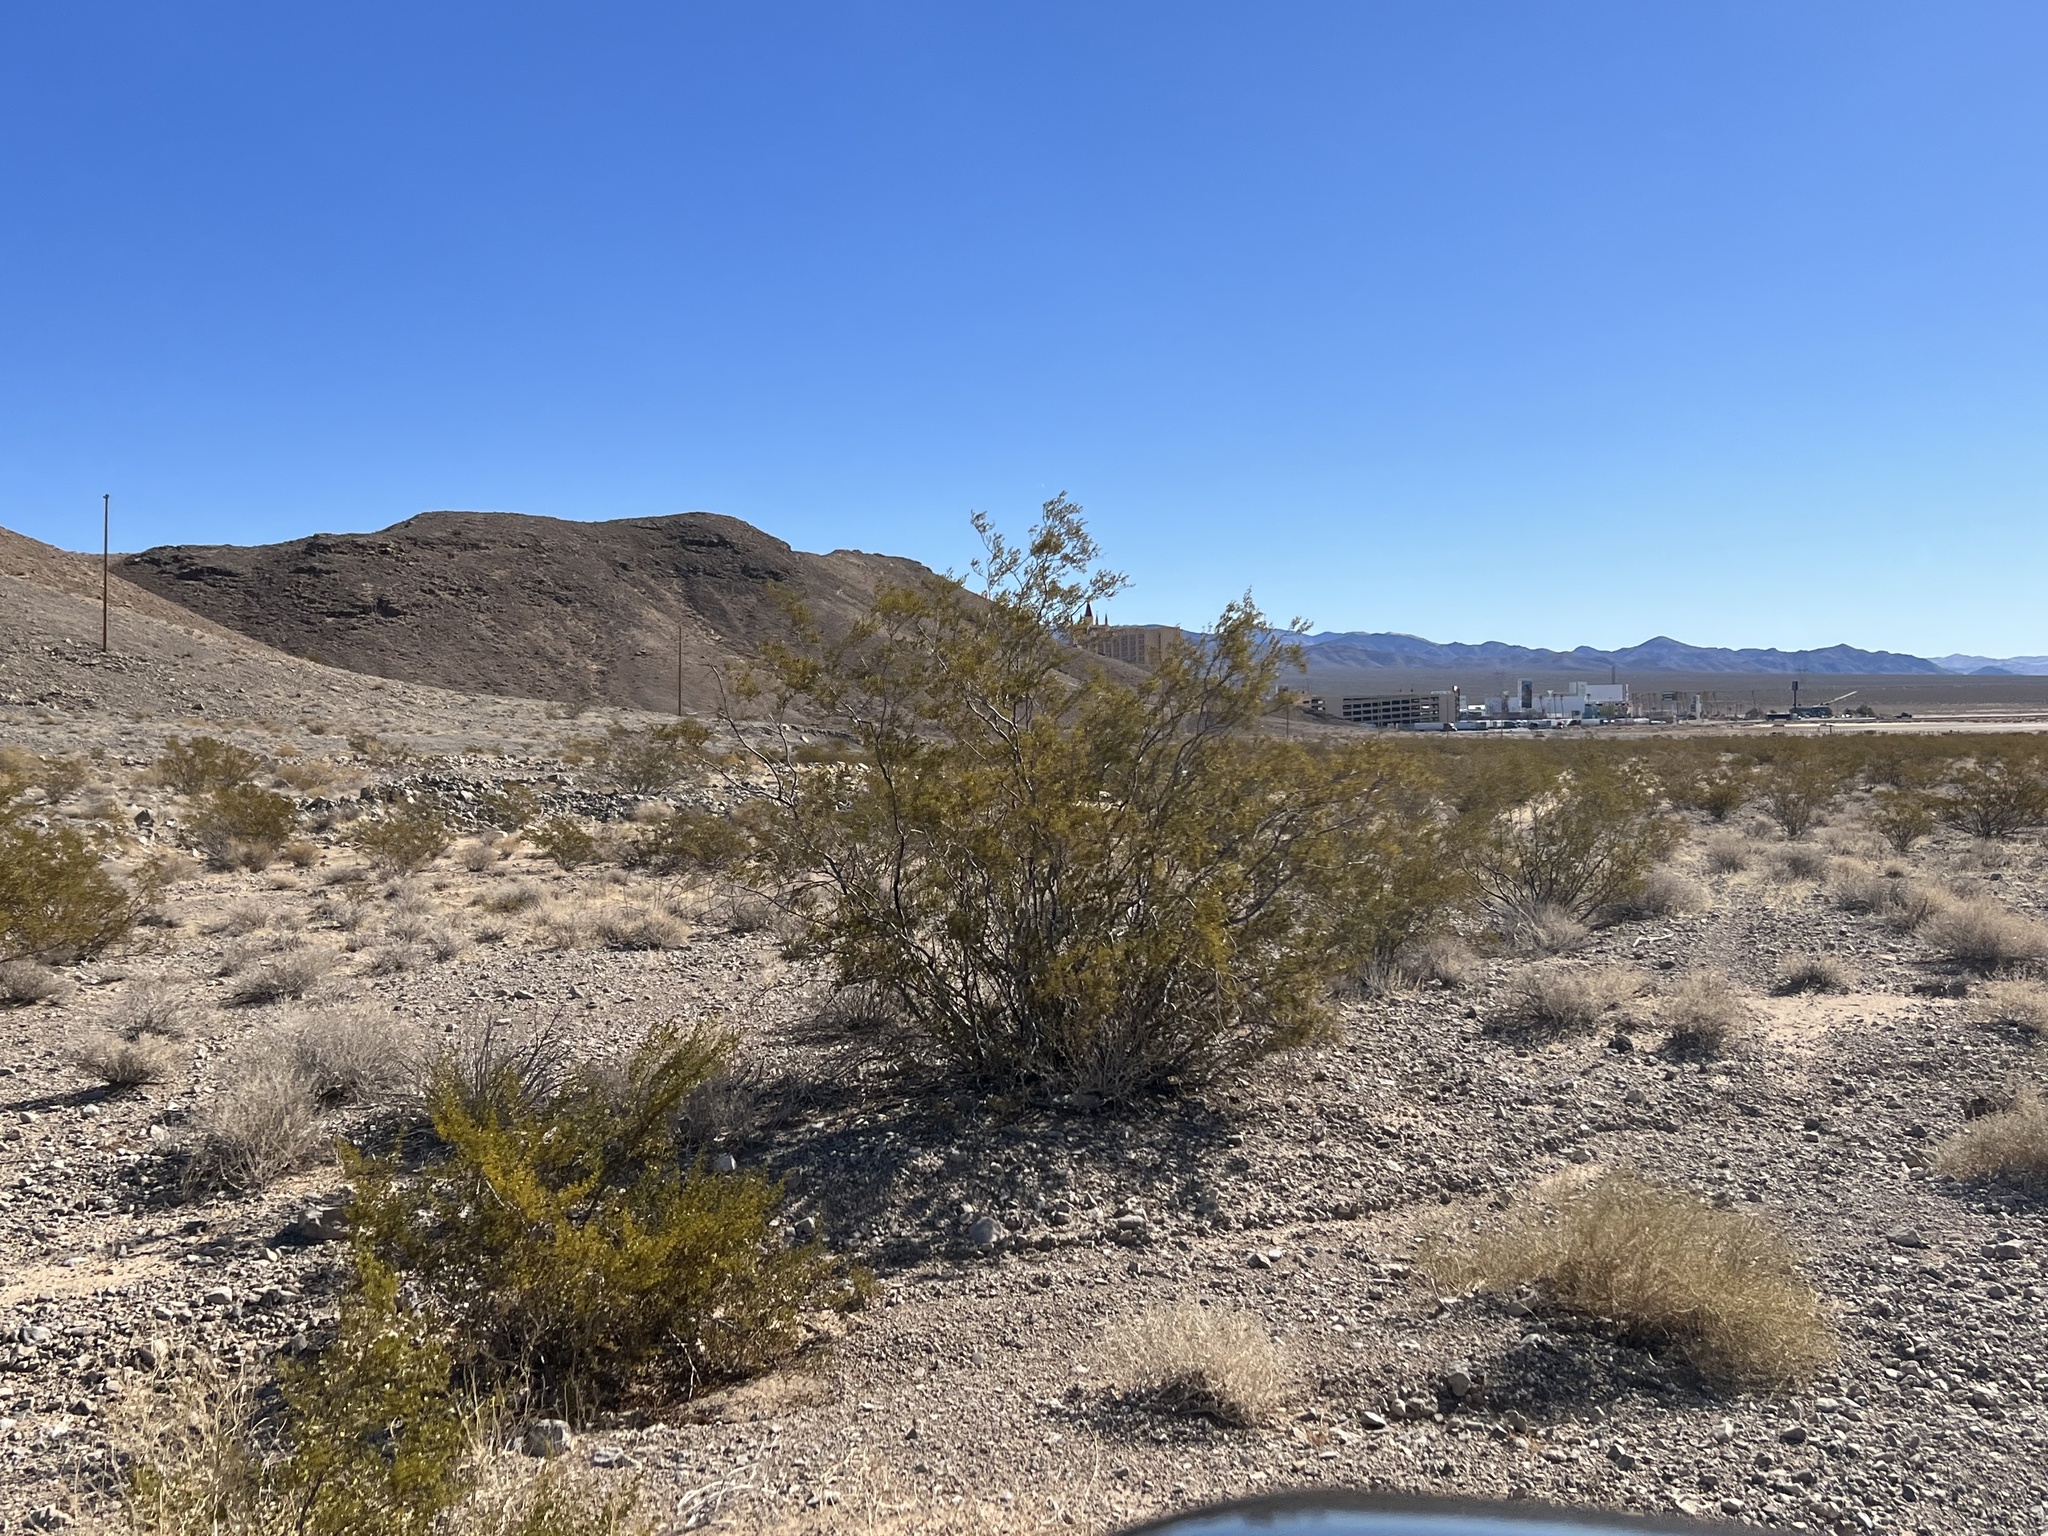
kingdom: Plantae
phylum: Tracheophyta
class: Magnoliopsida
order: Zygophyllales
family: Zygophyllaceae
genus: Larrea
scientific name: Larrea tridentata
